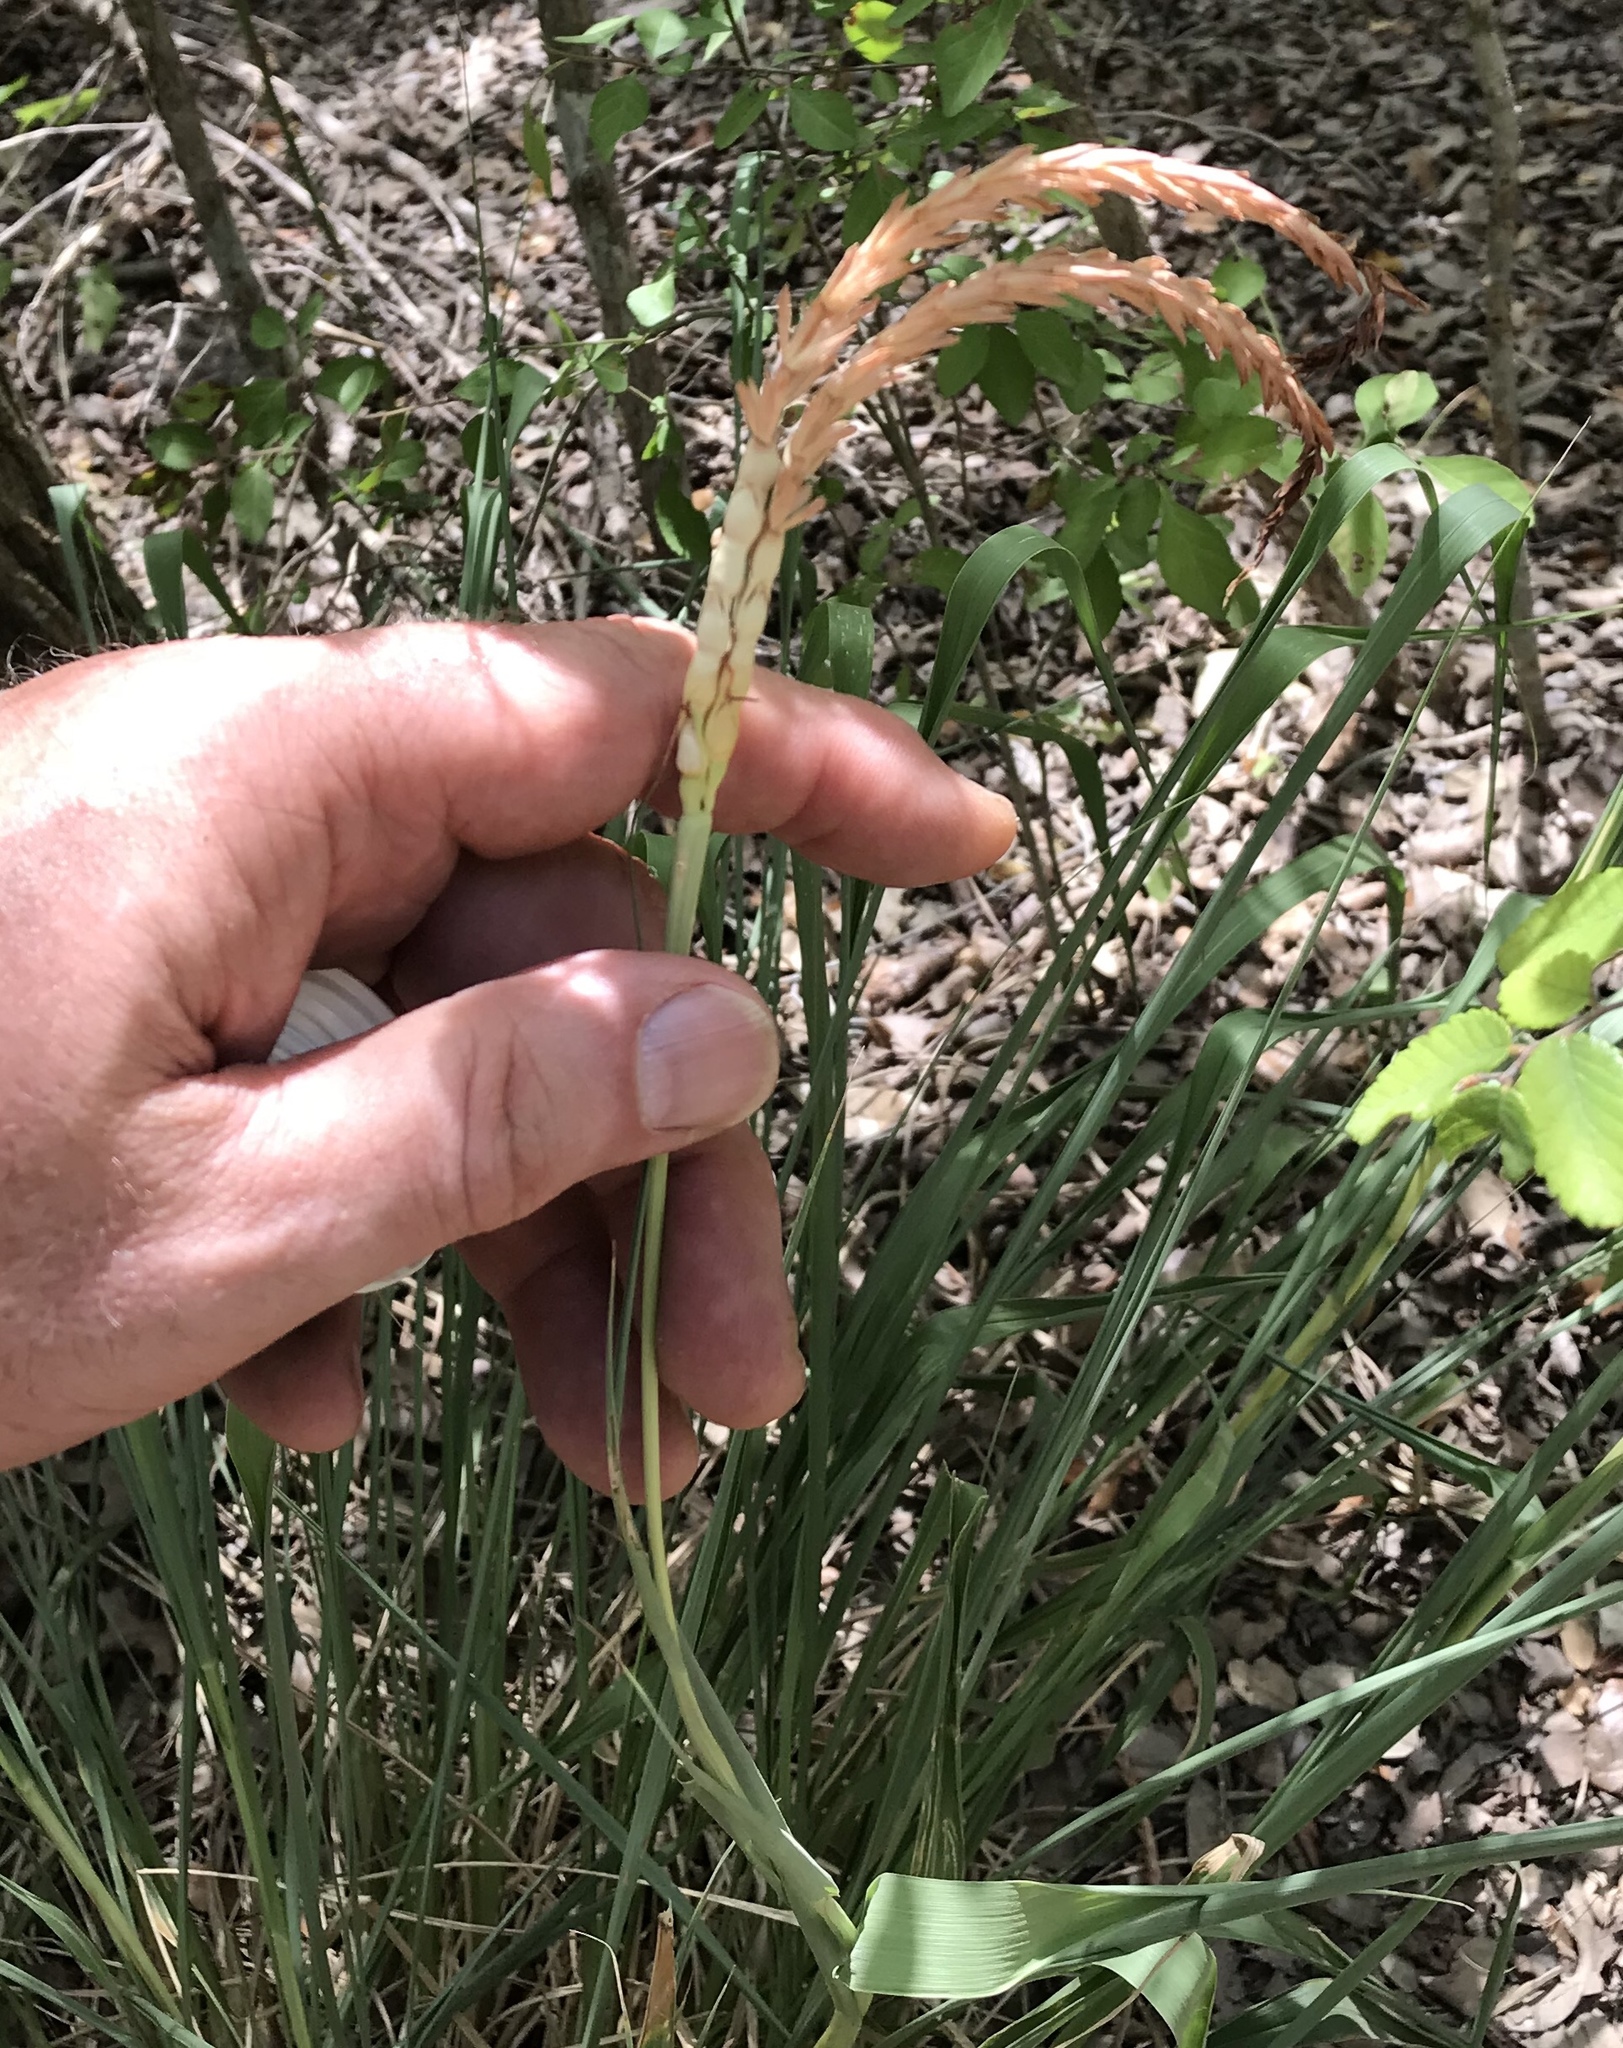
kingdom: Plantae
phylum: Tracheophyta
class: Liliopsida
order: Poales
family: Poaceae
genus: Tripsacum
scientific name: Tripsacum dactyloides
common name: Buffalo-grass
